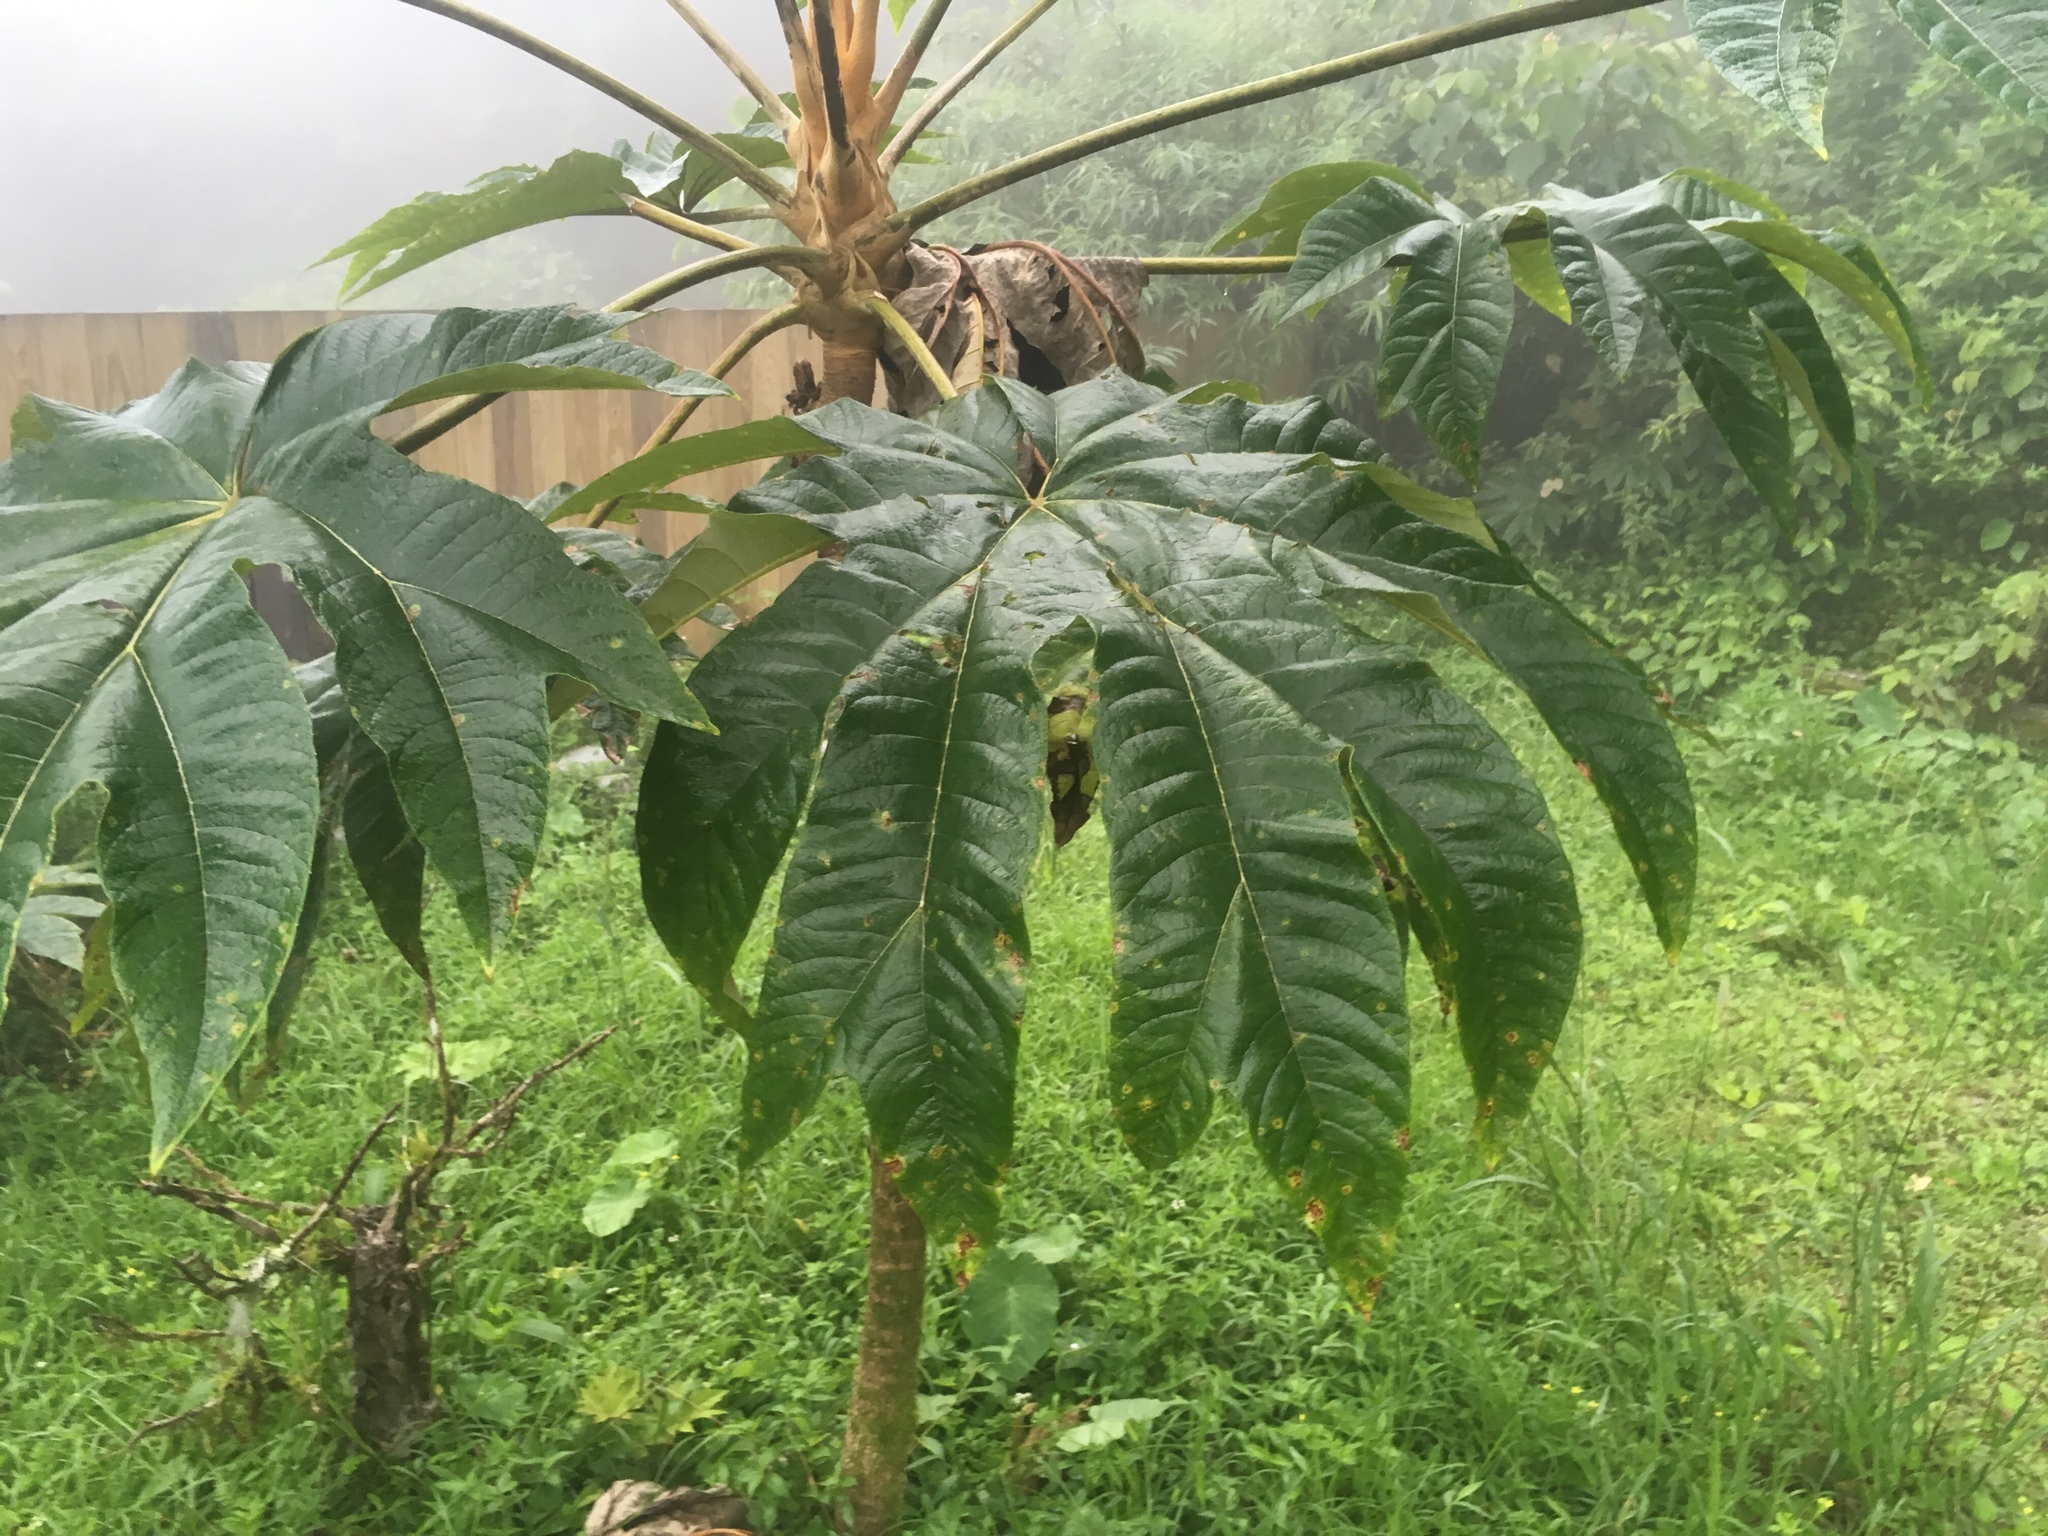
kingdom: Plantae
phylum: Tracheophyta
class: Magnoliopsida
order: Apiales
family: Araliaceae
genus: Tetrapanax
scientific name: Tetrapanax papyrifer
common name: Rice-paper plant
